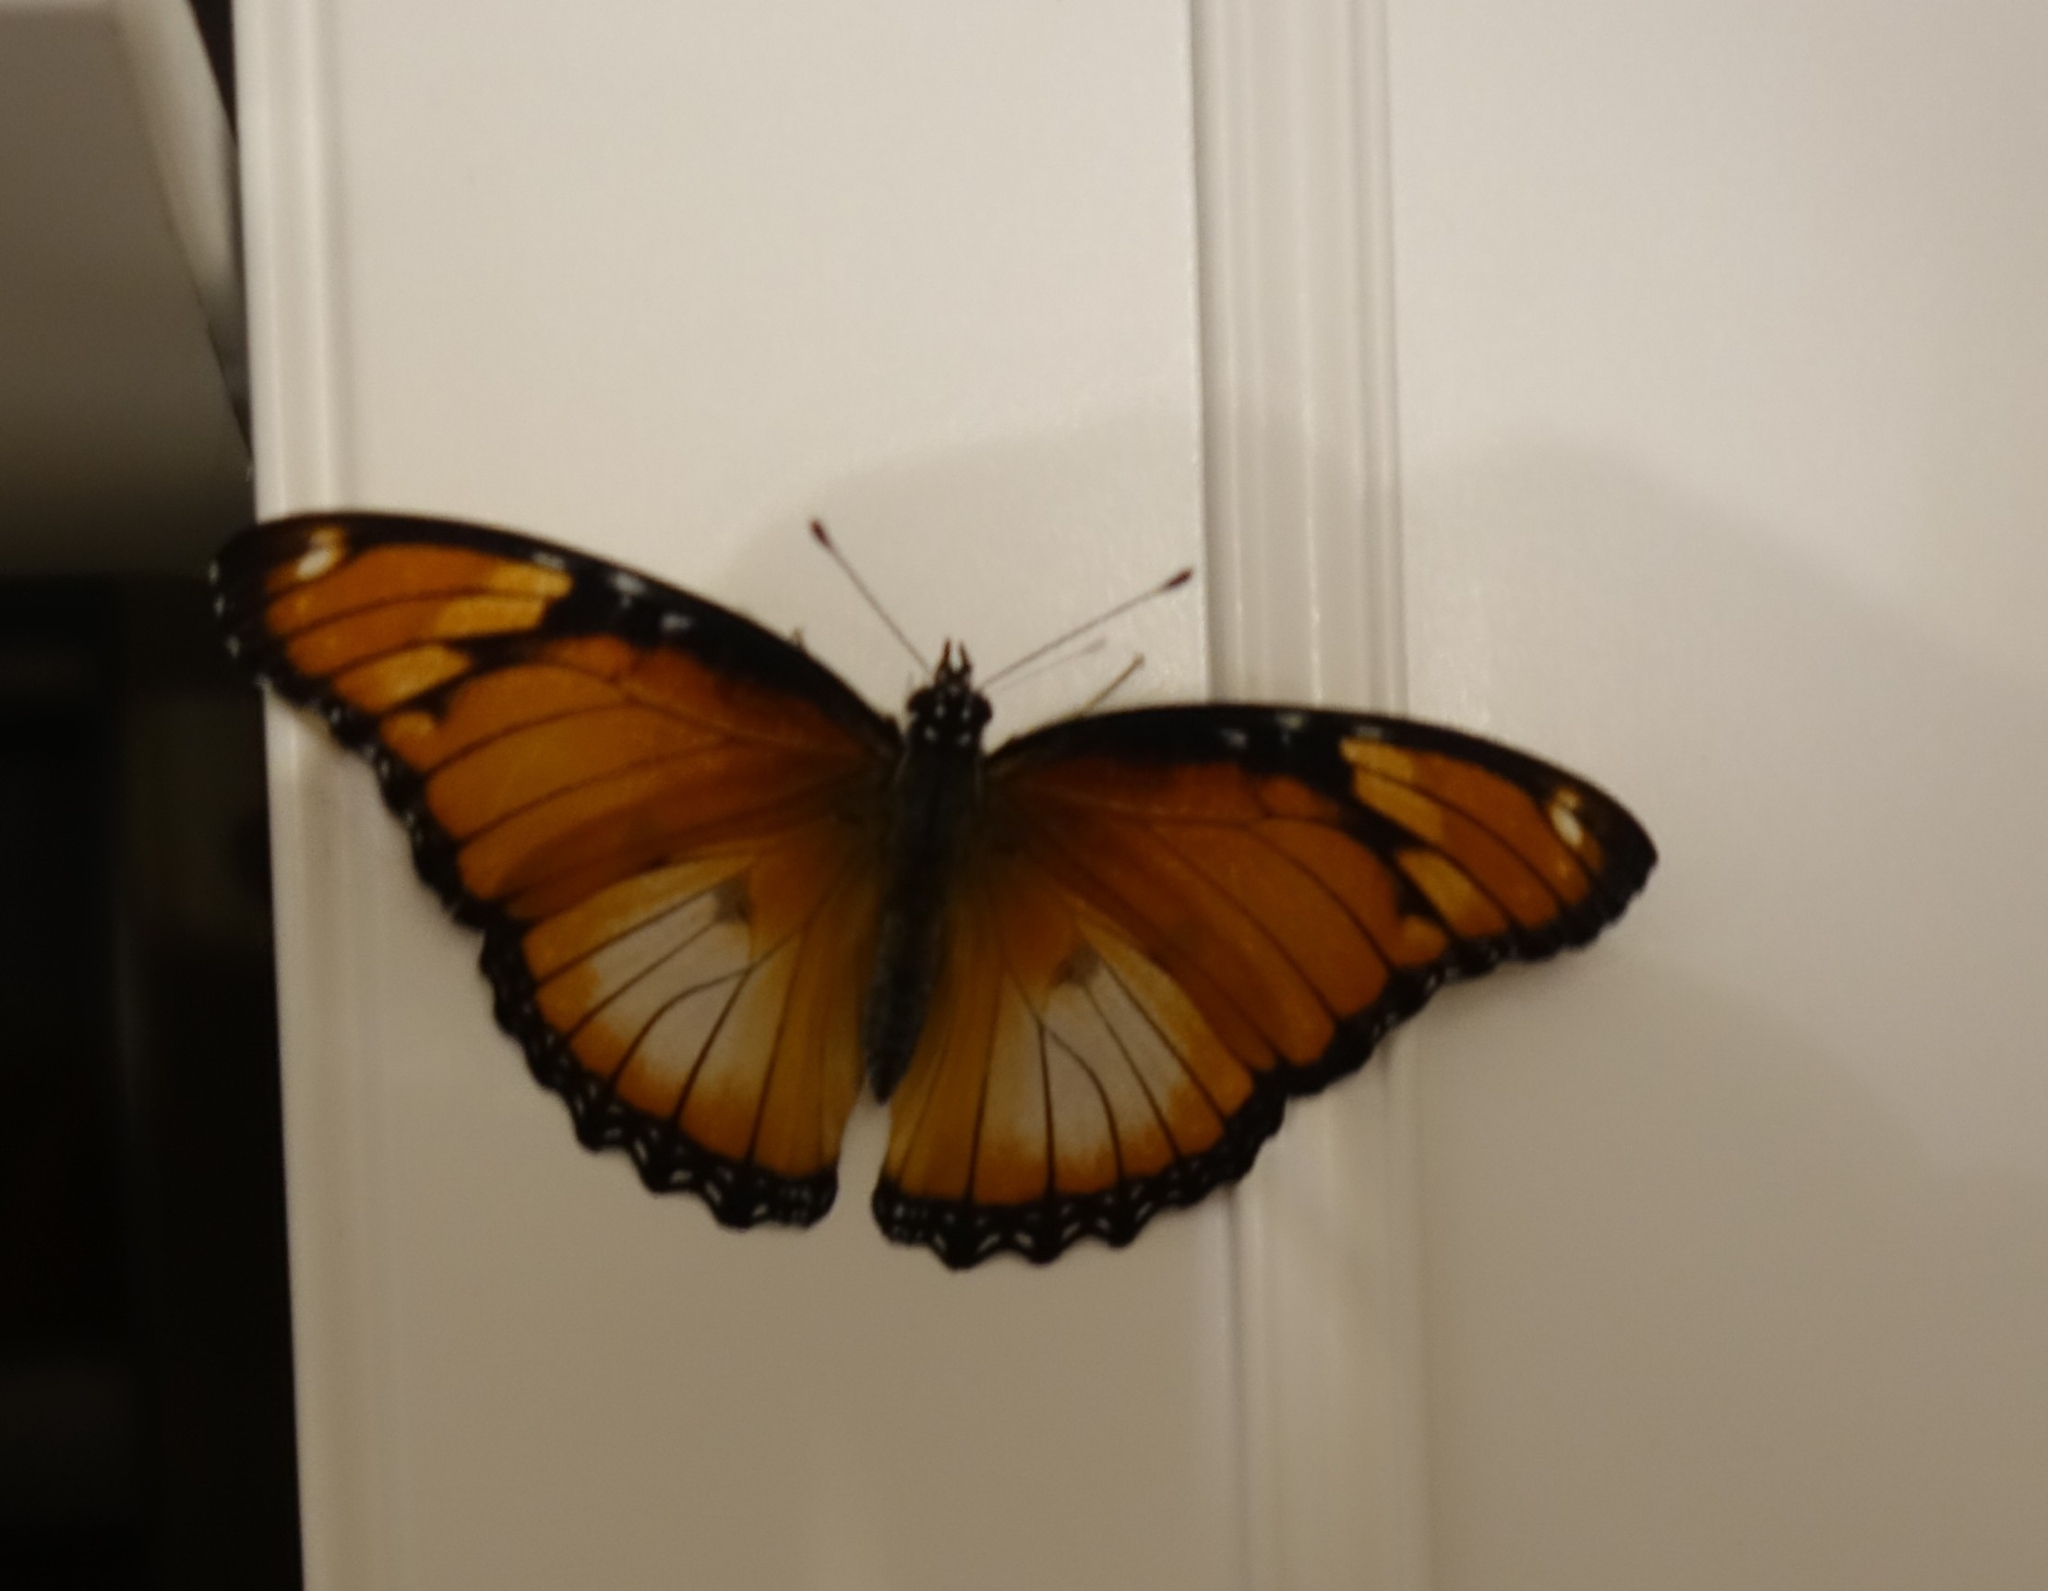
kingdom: Animalia
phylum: Arthropoda
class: Insecta
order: Lepidoptera
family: Nymphalidae
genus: Hypolimnas
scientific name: Hypolimnas misippus
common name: False plain tiger
